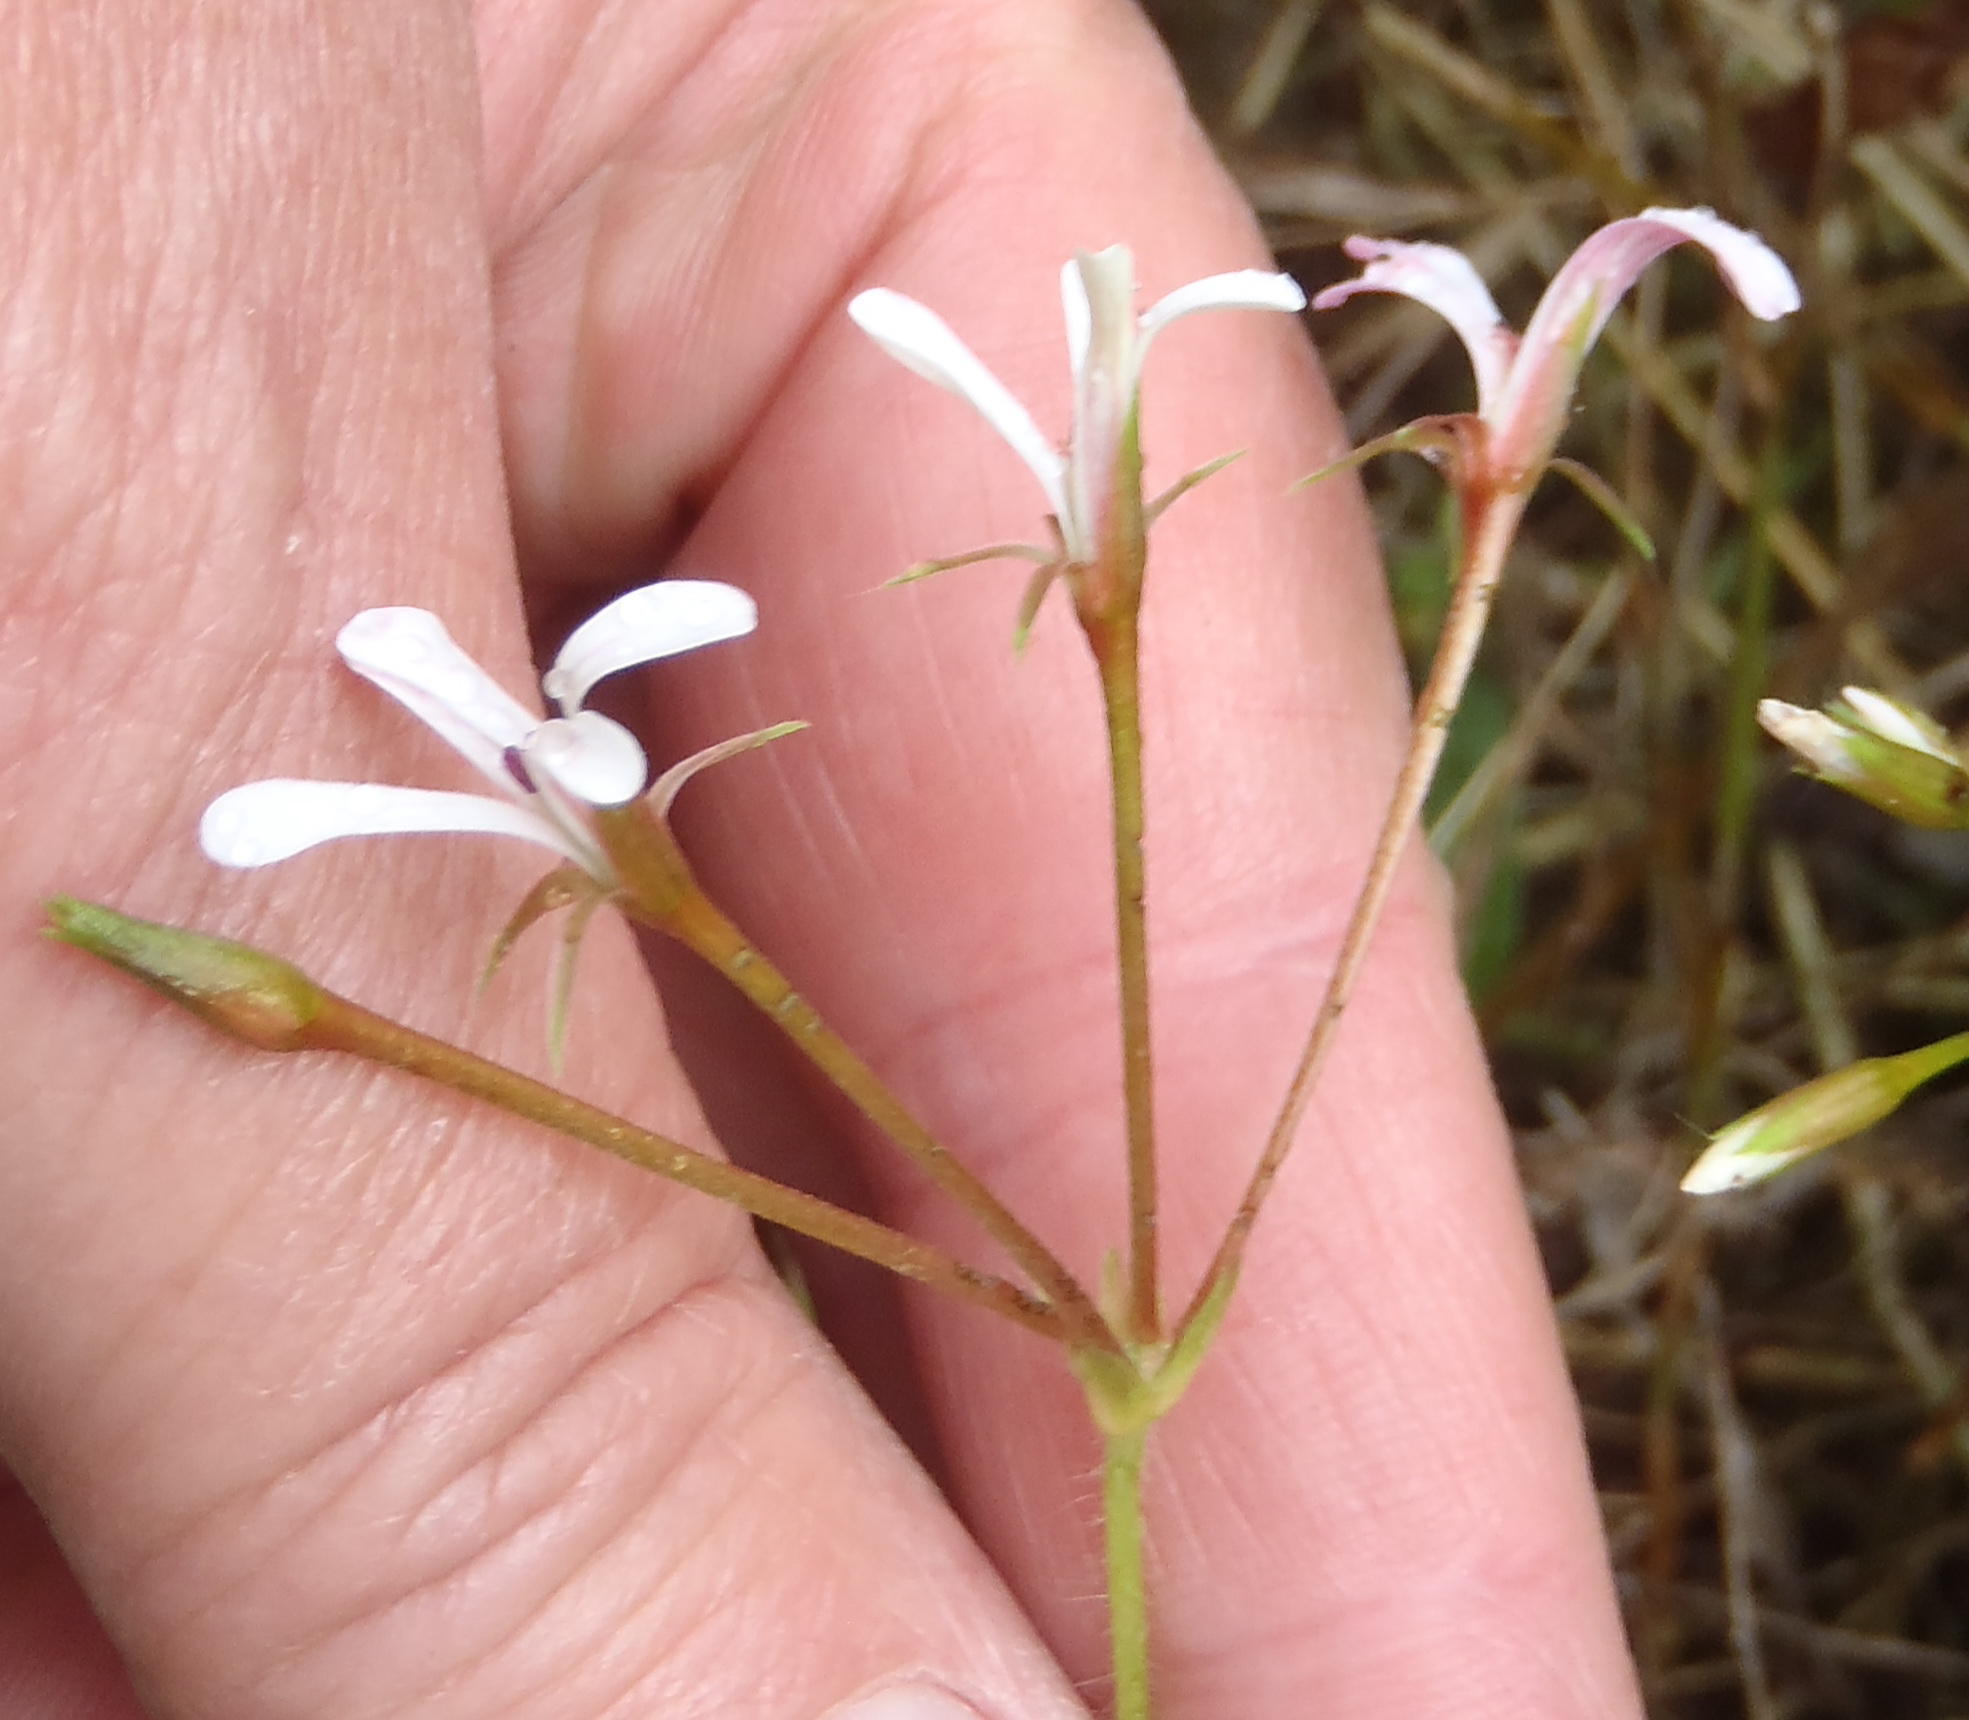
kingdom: Plantae
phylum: Tracheophyta
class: Magnoliopsida
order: Geraniales
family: Geraniaceae
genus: Pelargonium
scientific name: Pelargonium alchemilloides
